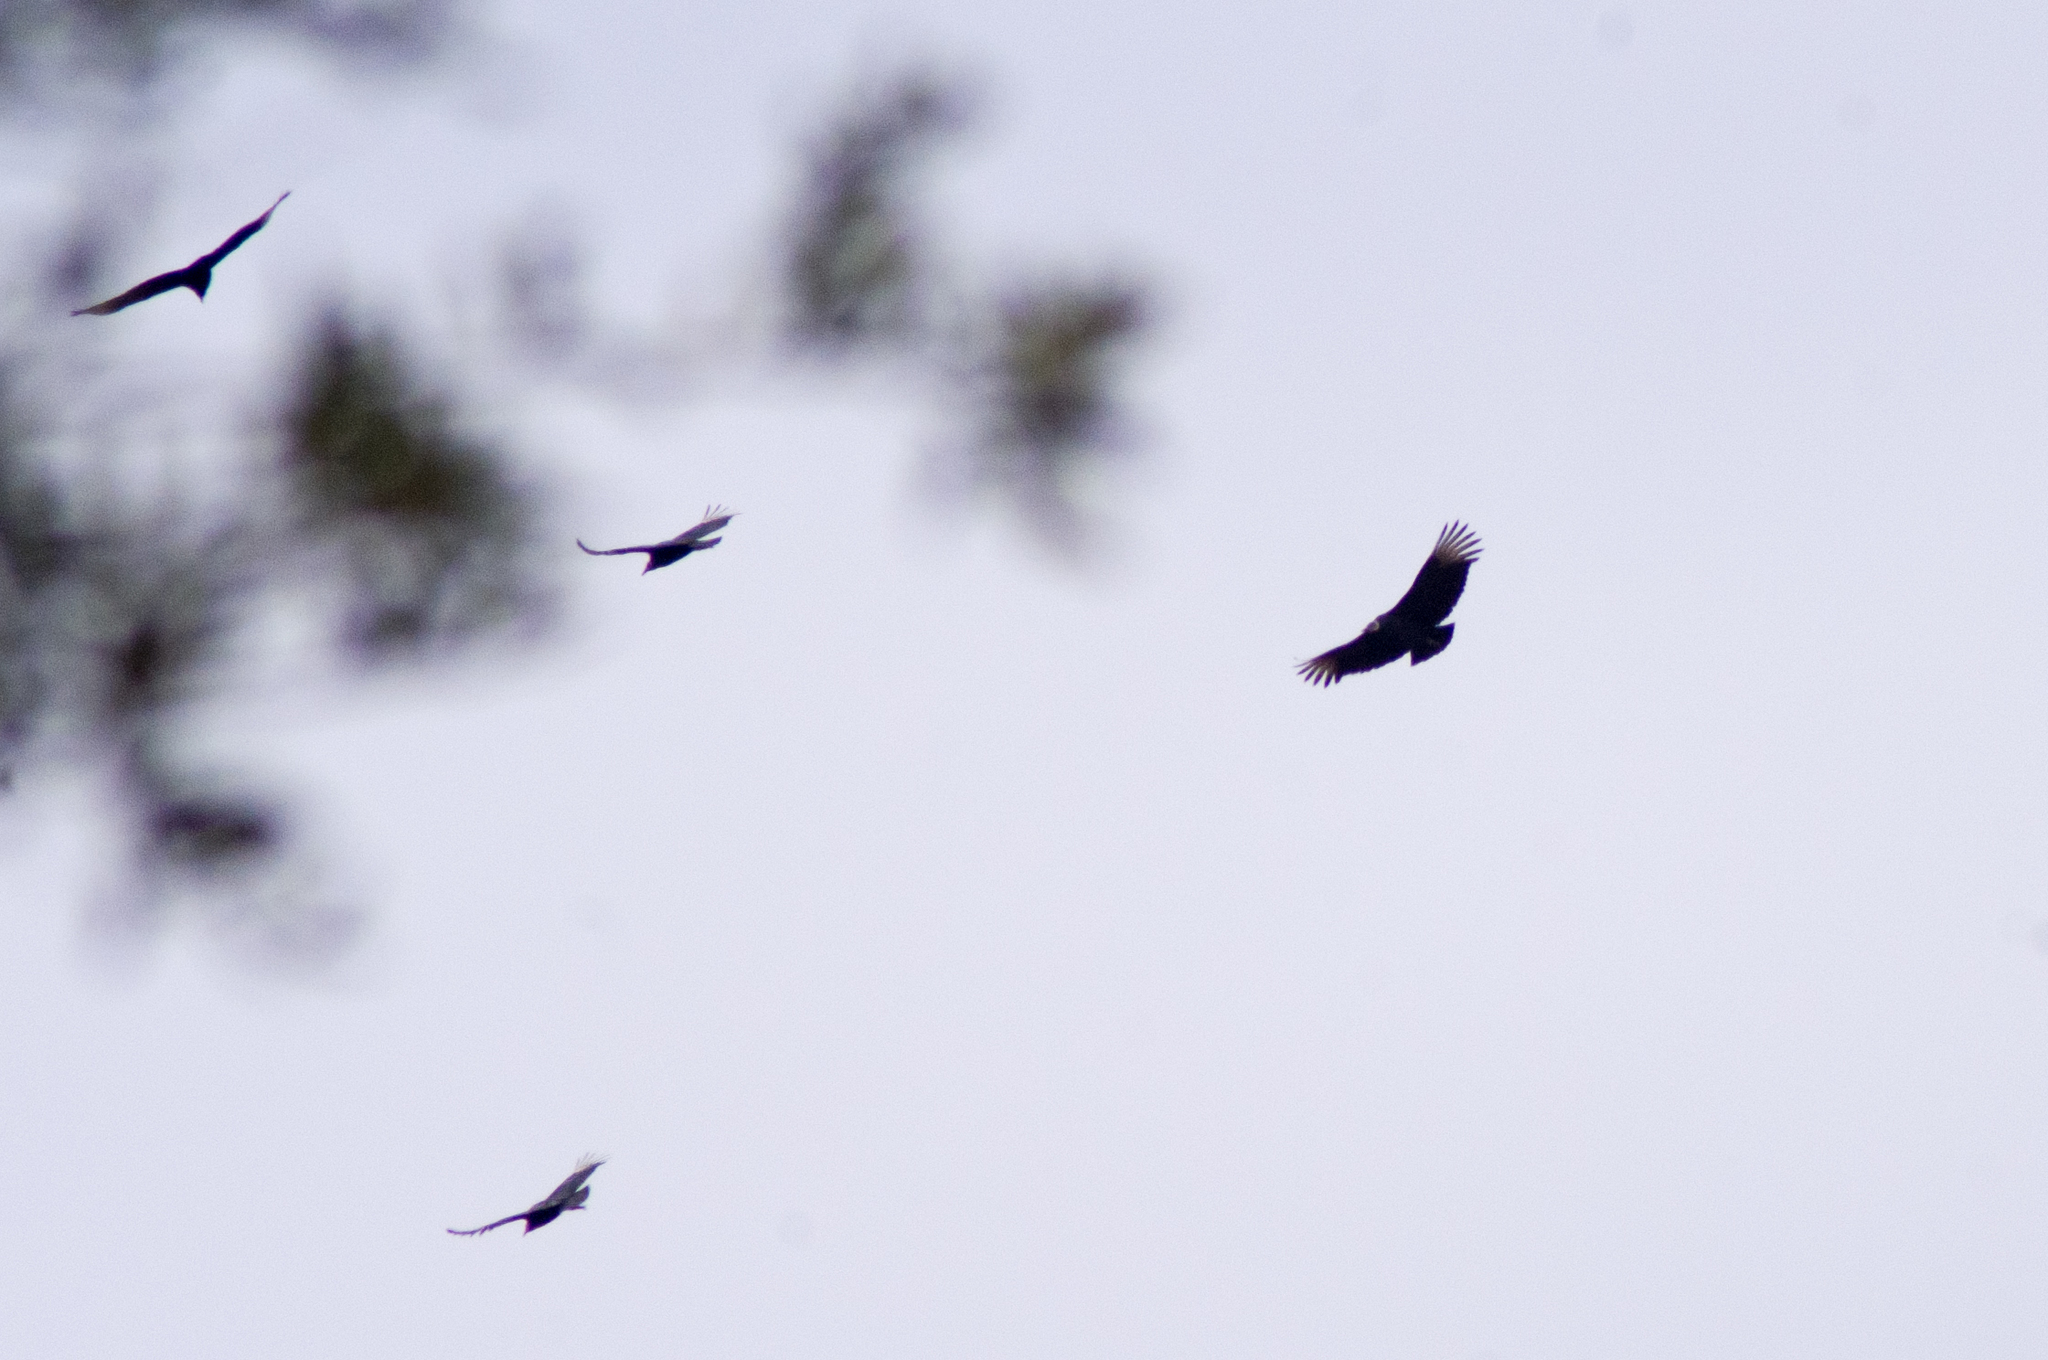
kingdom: Animalia
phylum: Chordata
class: Aves
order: Accipitriformes
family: Cathartidae
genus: Coragyps
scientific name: Coragyps atratus
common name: Black vulture
